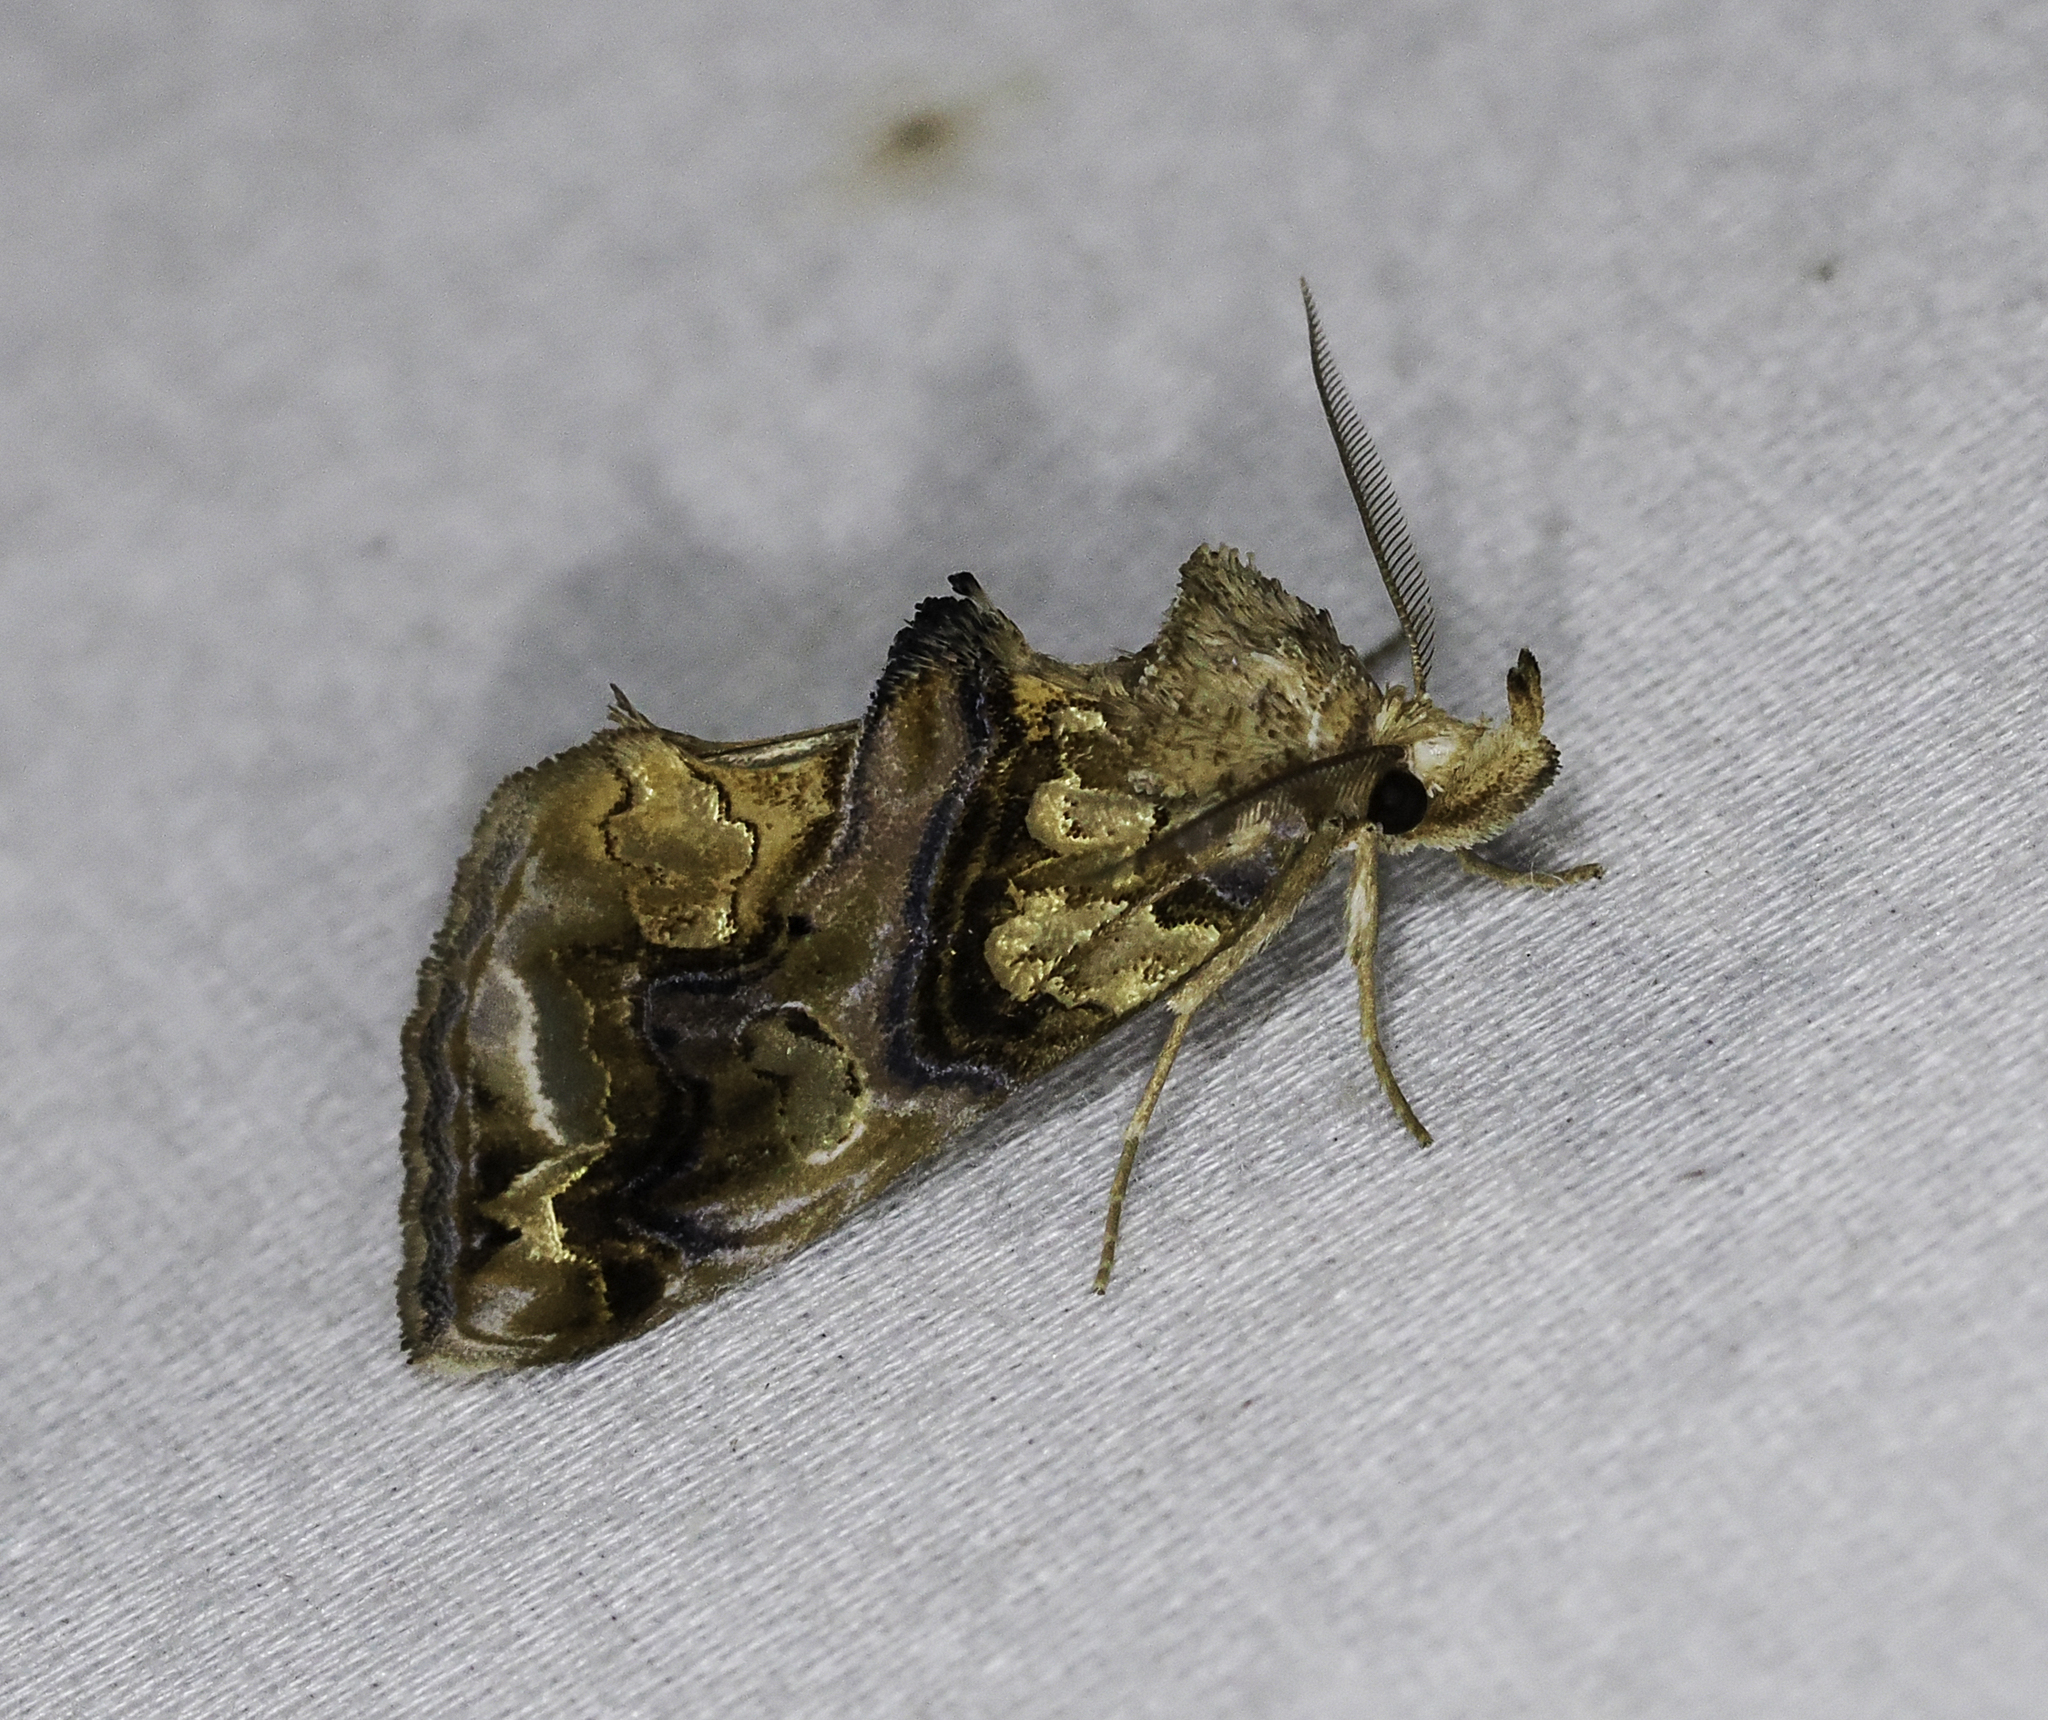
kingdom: Animalia
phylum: Arthropoda
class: Insecta
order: Lepidoptera
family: Erebidae
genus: Plusiodonta
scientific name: Plusiodonta compressipalpis
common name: Moonseed moth
